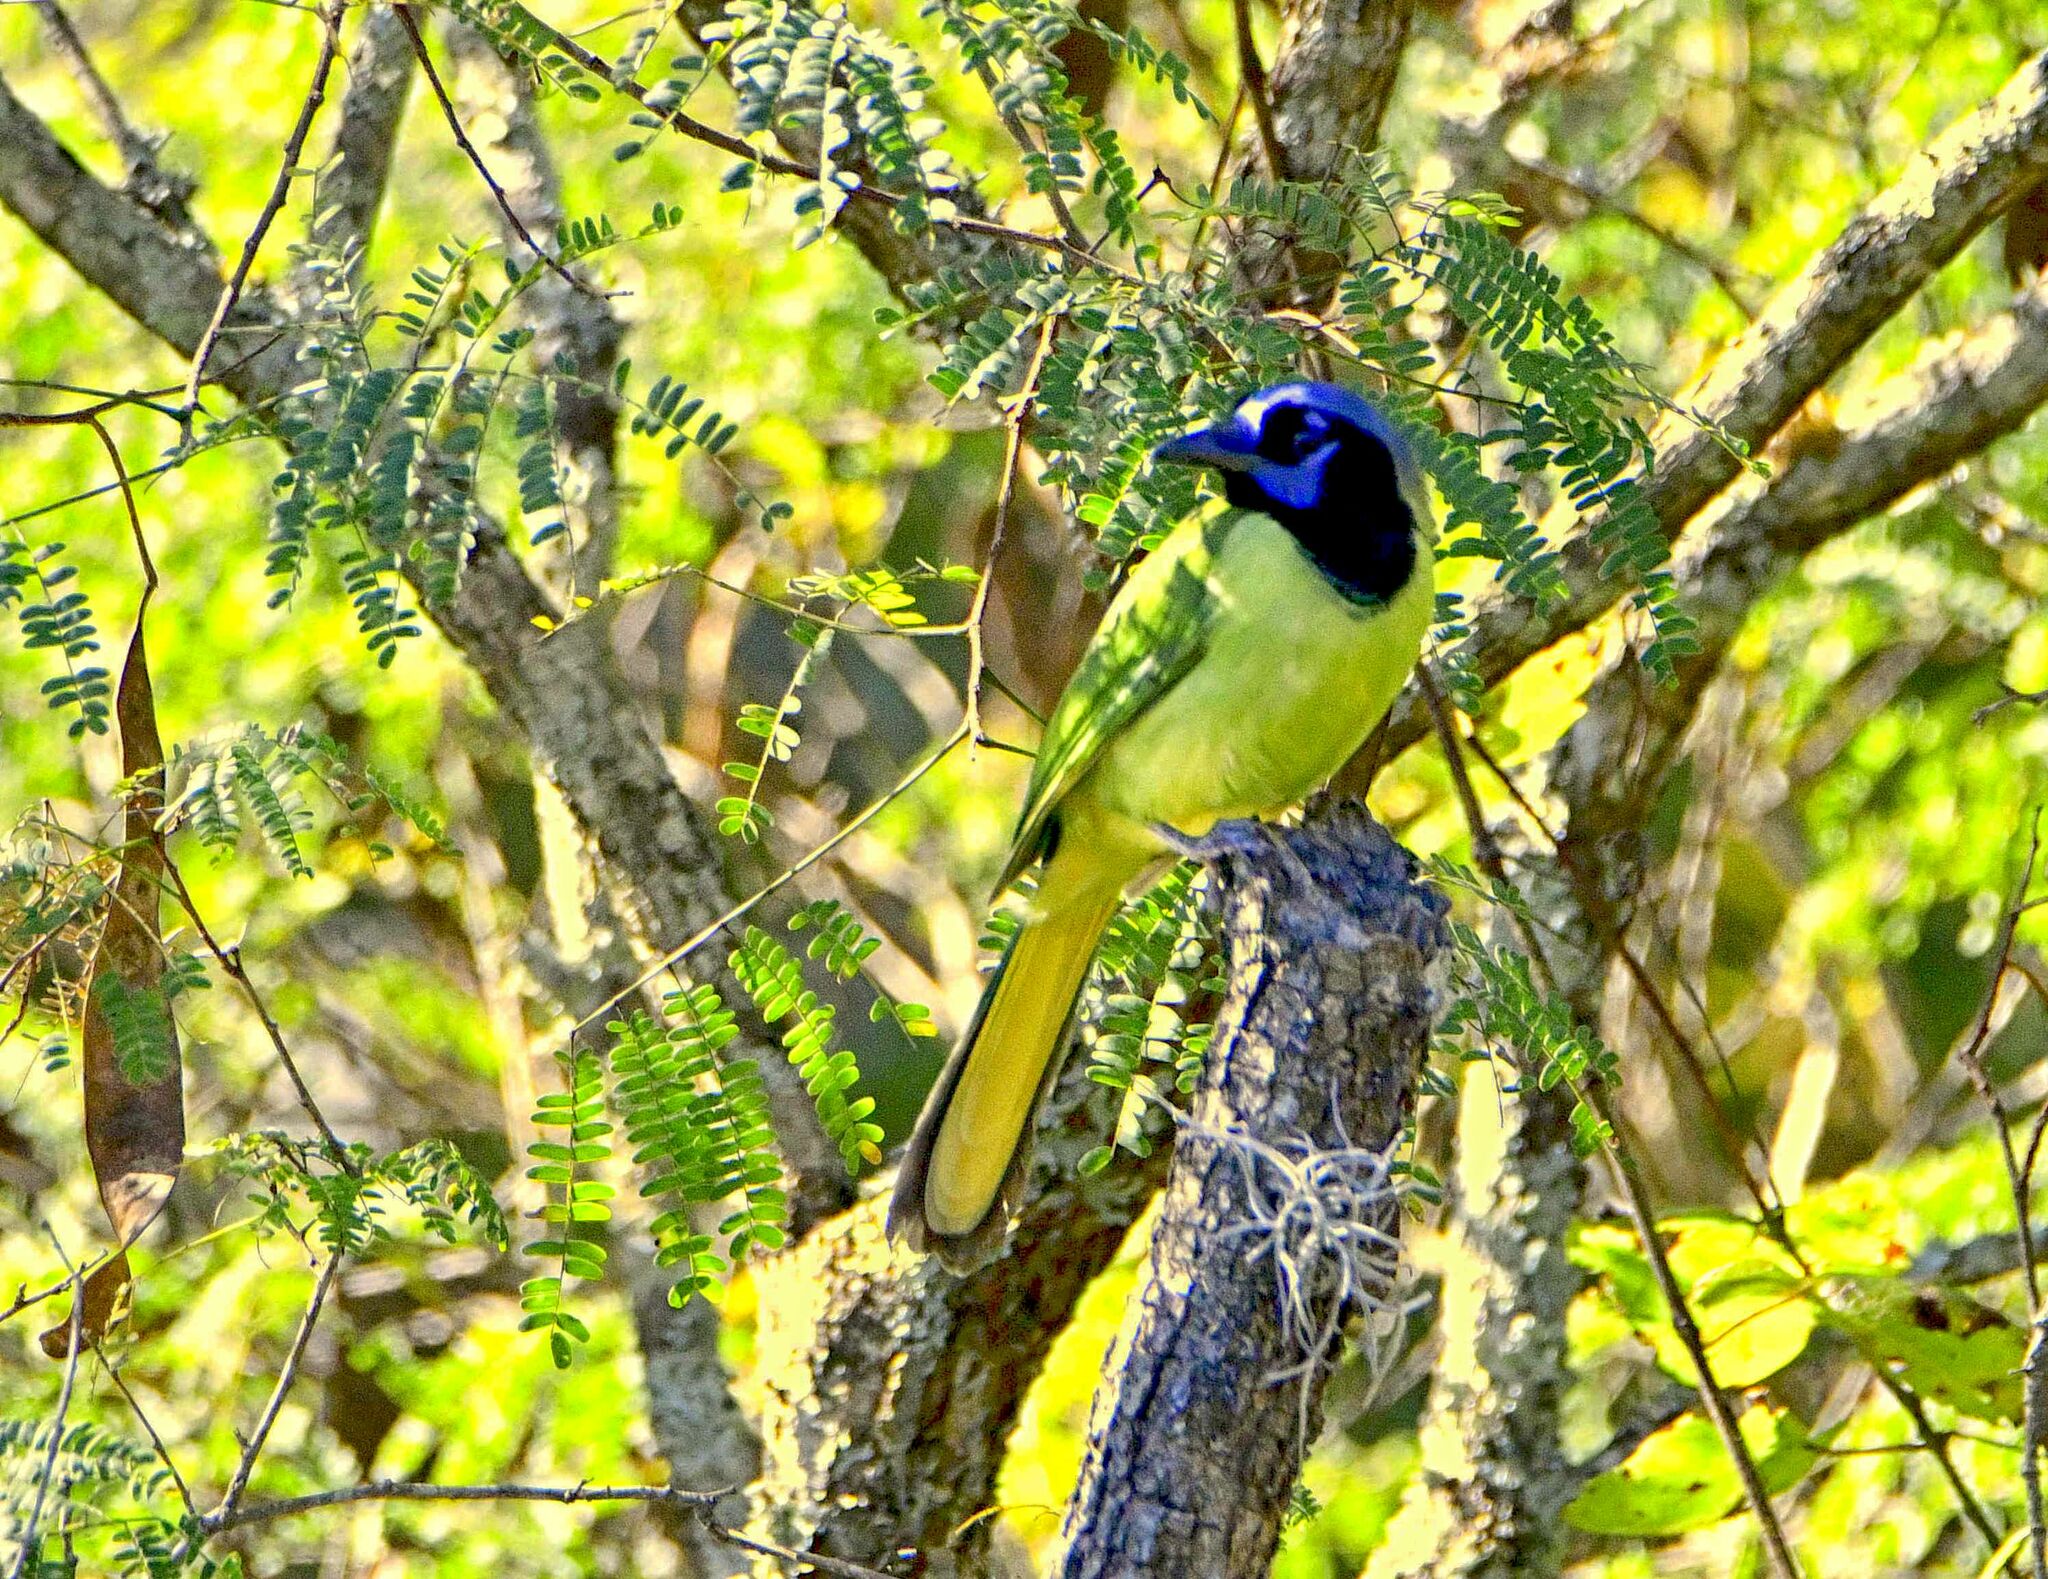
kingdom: Animalia
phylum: Chordata
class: Aves
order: Passeriformes
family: Corvidae
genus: Cyanocorax
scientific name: Cyanocorax yncas
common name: Green jay
